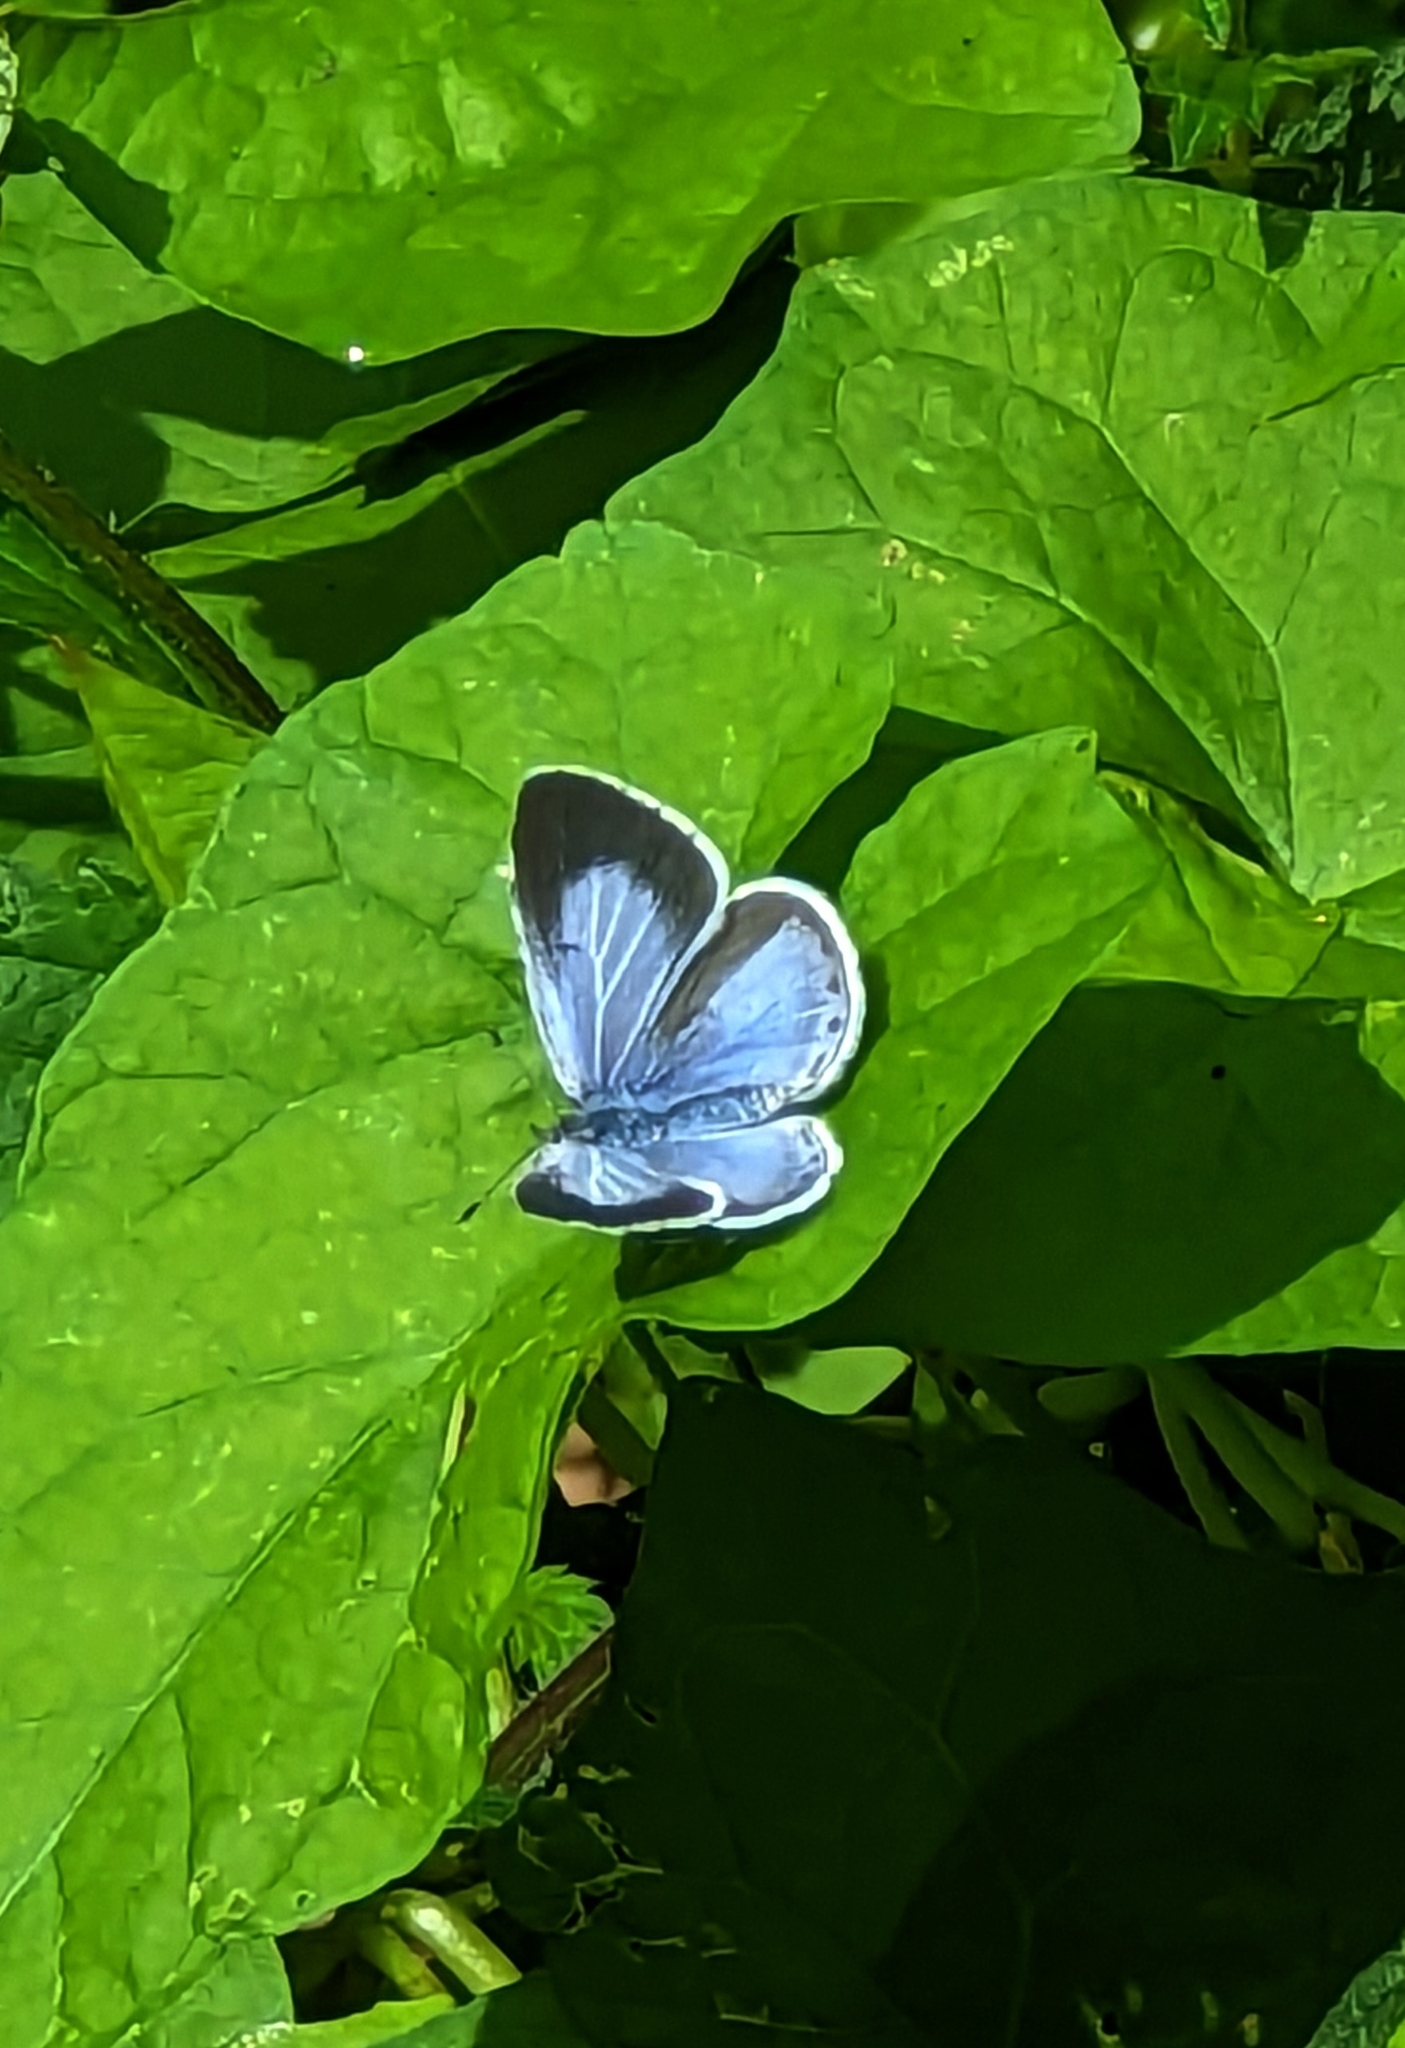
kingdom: Animalia
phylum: Arthropoda
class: Insecta
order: Lepidoptera
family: Lycaenidae
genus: Celastrina
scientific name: Celastrina argiolus
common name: Holly blue
